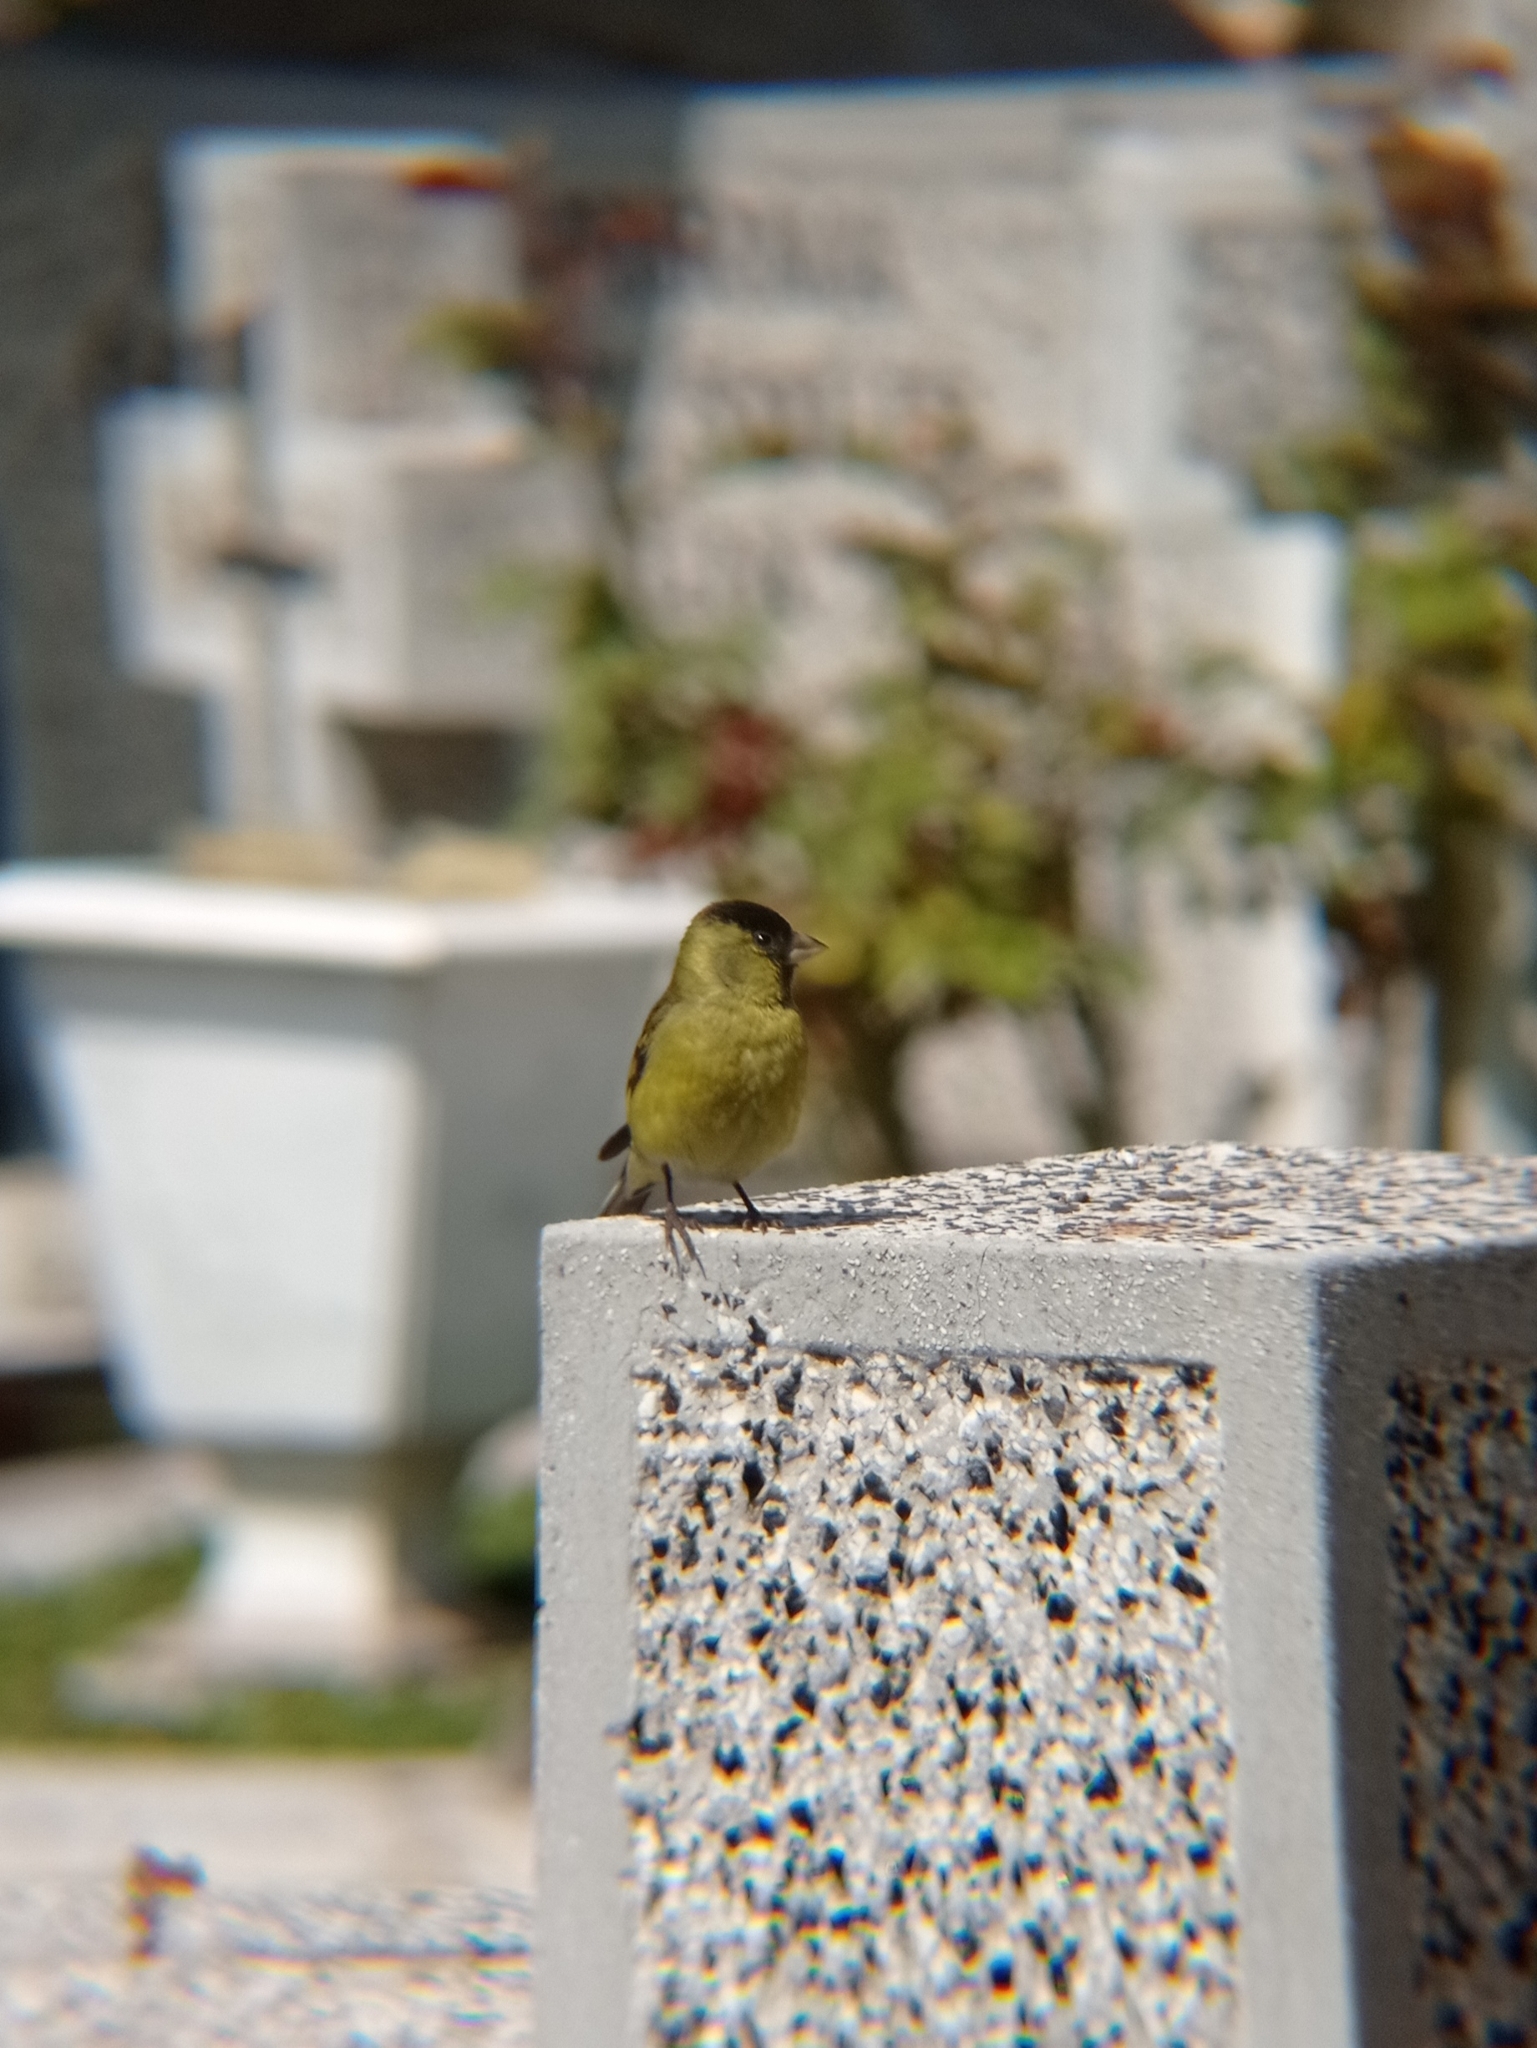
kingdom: Animalia
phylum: Chordata
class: Aves
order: Passeriformes
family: Fringillidae
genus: Spinus
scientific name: Spinus barbatus
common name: Black-chinned siskin
